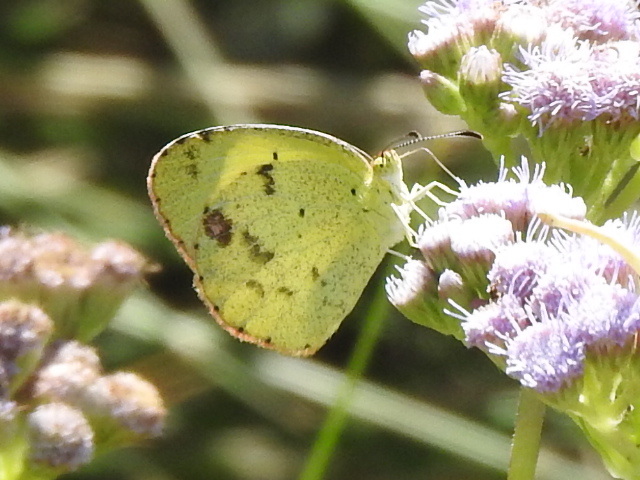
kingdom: Animalia
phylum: Arthropoda
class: Insecta
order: Lepidoptera
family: Pieridae
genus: Pyrisitia
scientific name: Pyrisitia lisa
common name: Little yellow
